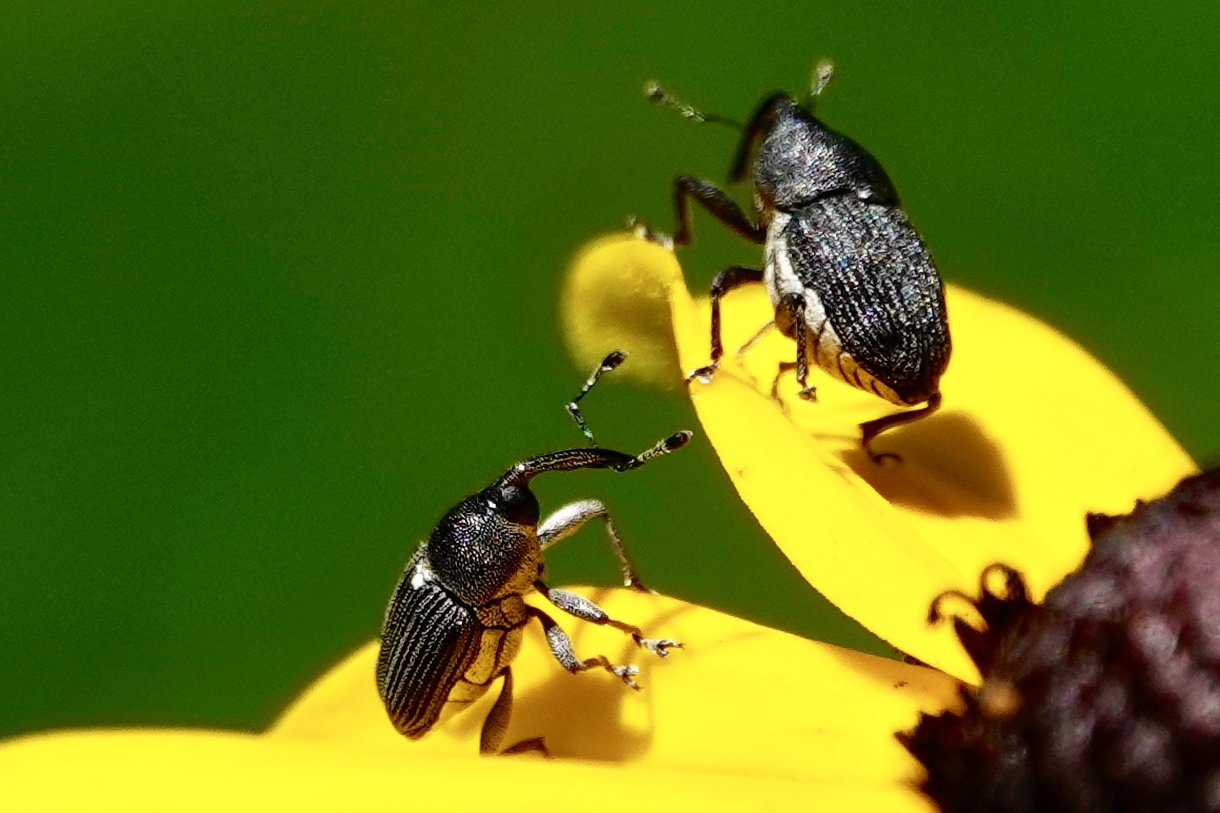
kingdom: Animalia
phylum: Arthropoda
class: Insecta
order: Coleoptera
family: Curculionidae
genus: Odontocorynus
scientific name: Odontocorynus umbellae
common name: Daisy flower weevil
